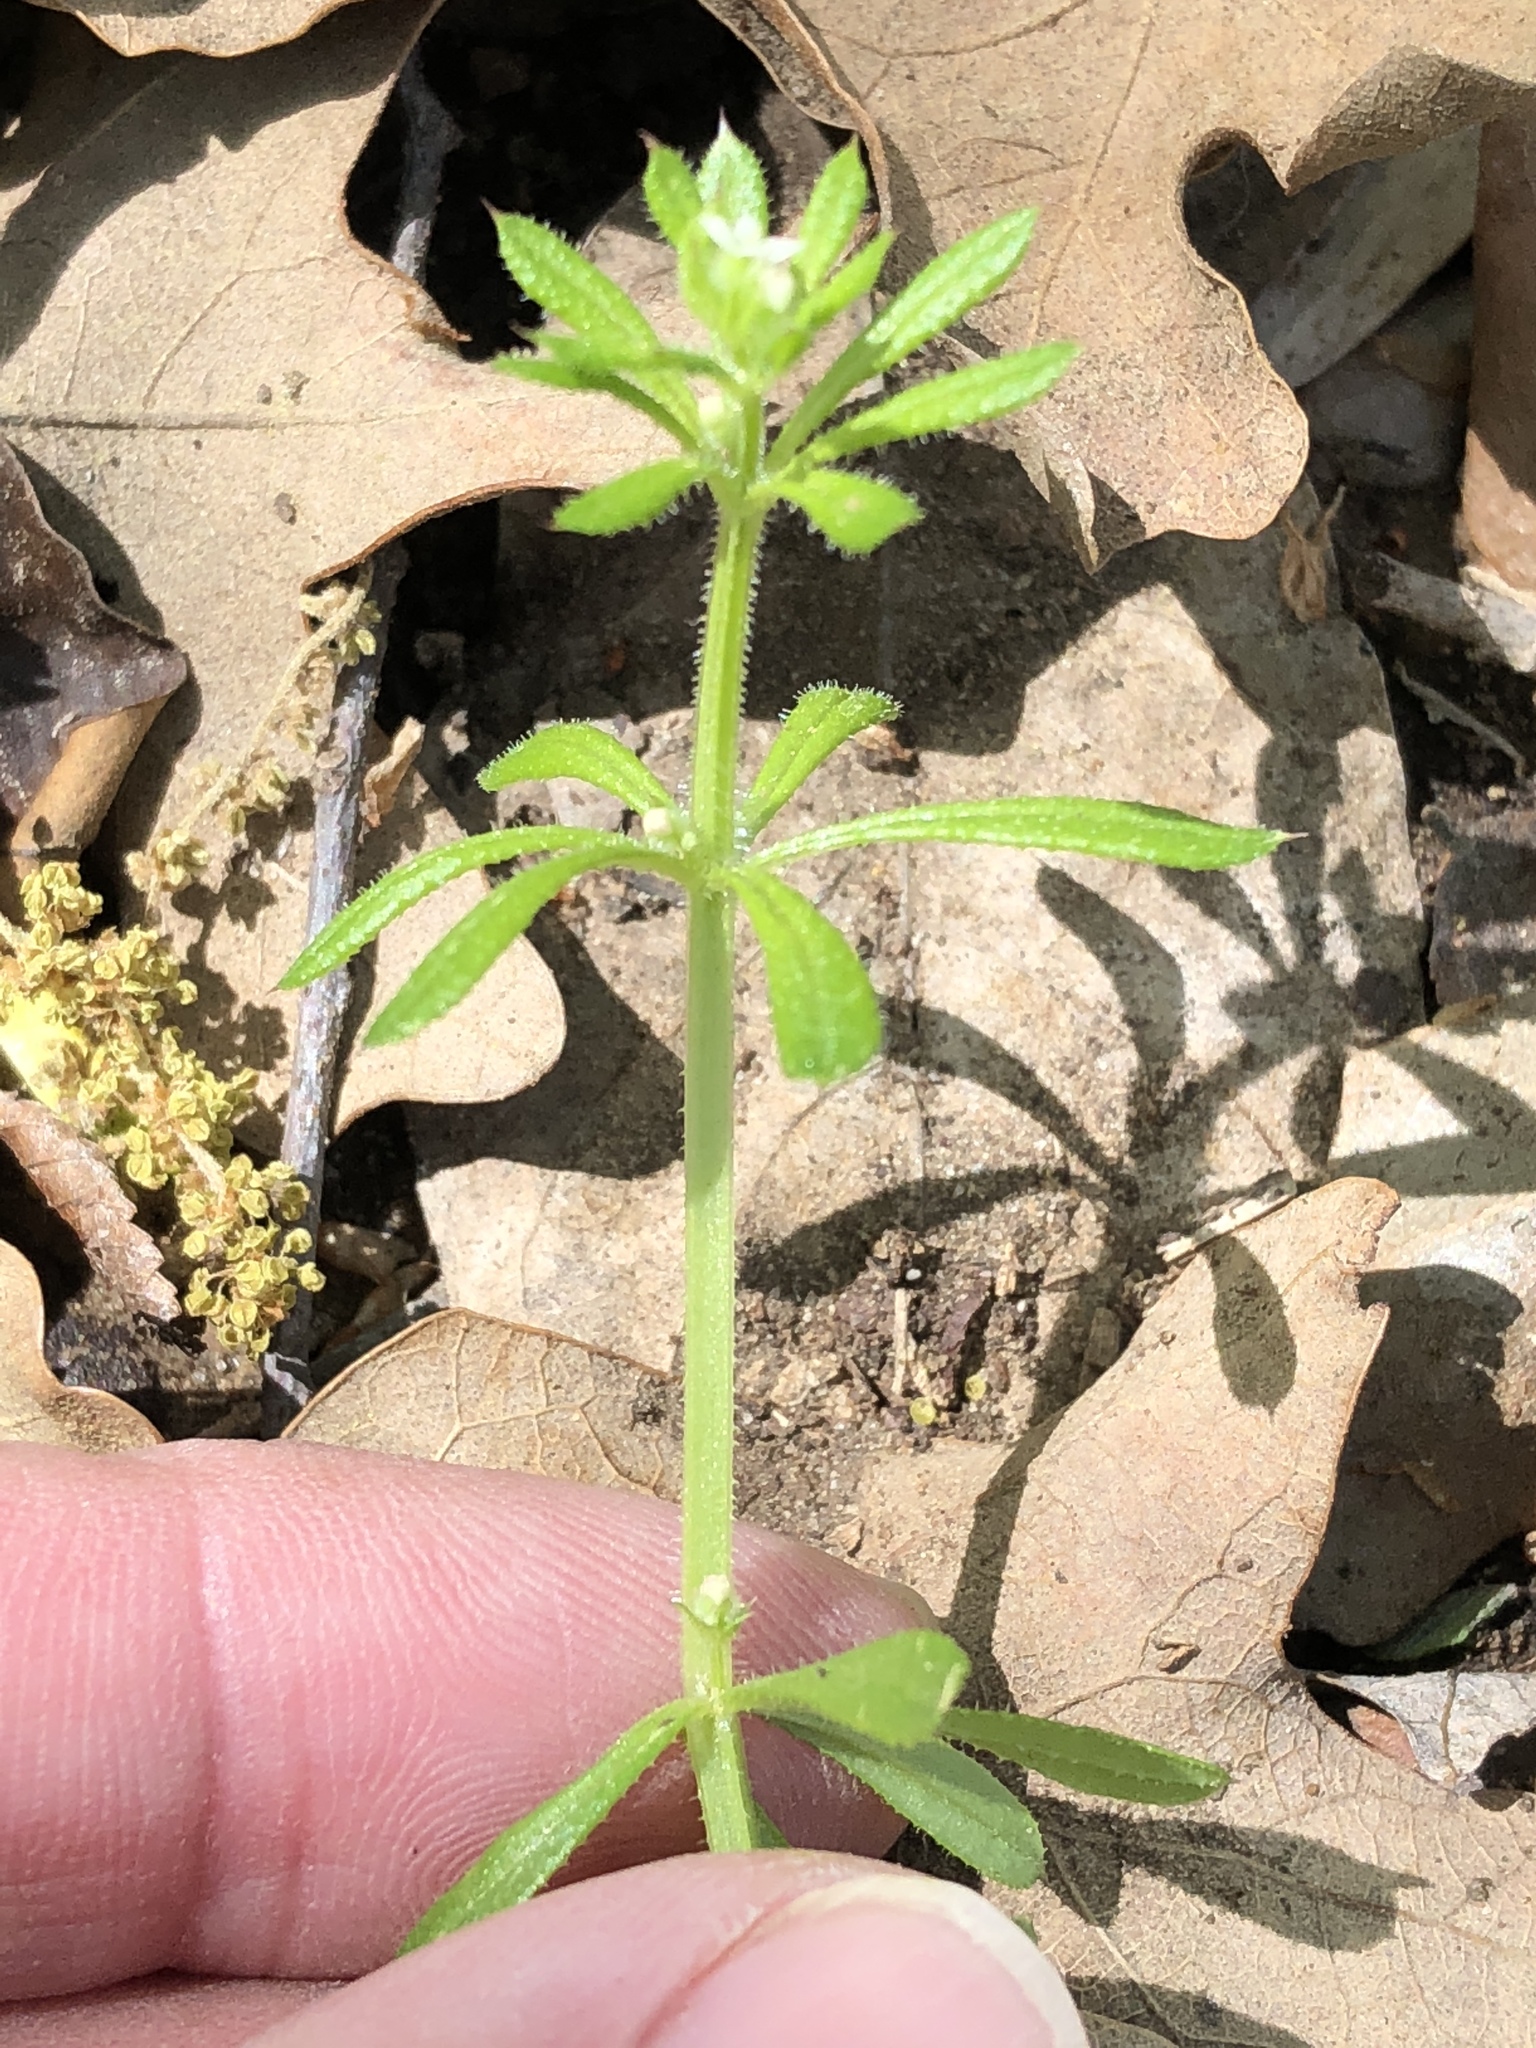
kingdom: Plantae
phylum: Tracheophyta
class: Magnoliopsida
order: Gentianales
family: Rubiaceae
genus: Galium
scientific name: Galium aparine
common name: Cleavers
